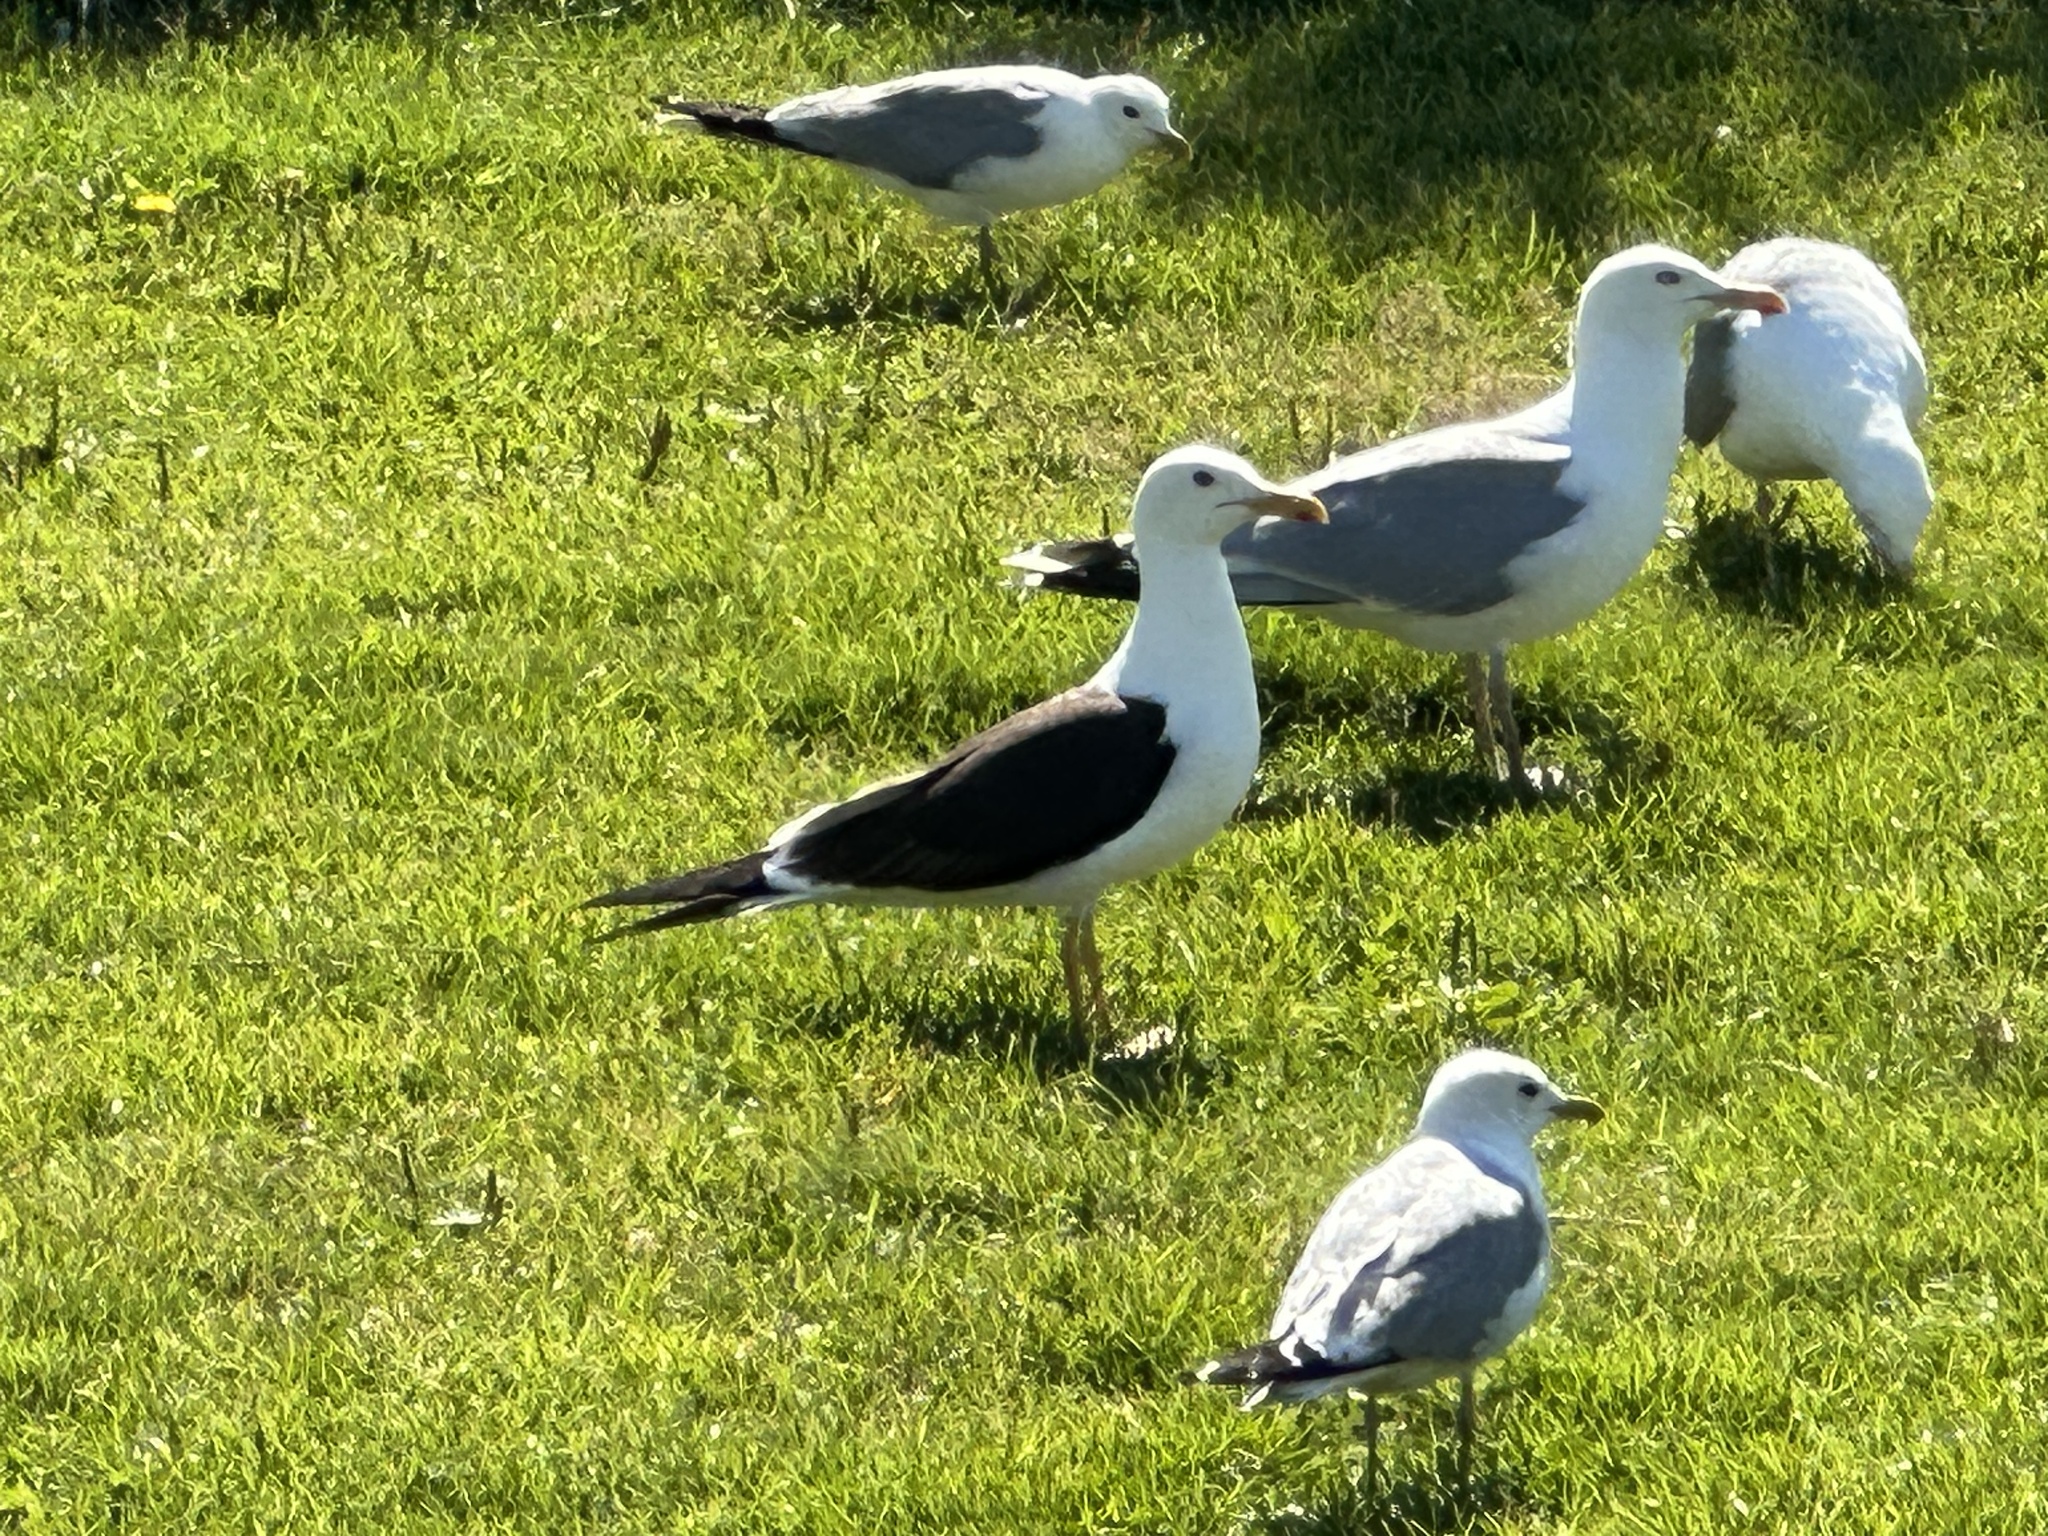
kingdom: Animalia
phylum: Chordata
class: Aves
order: Charadriiformes
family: Laridae
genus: Larus
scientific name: Larus fuscus
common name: Lesser black-backed gull
